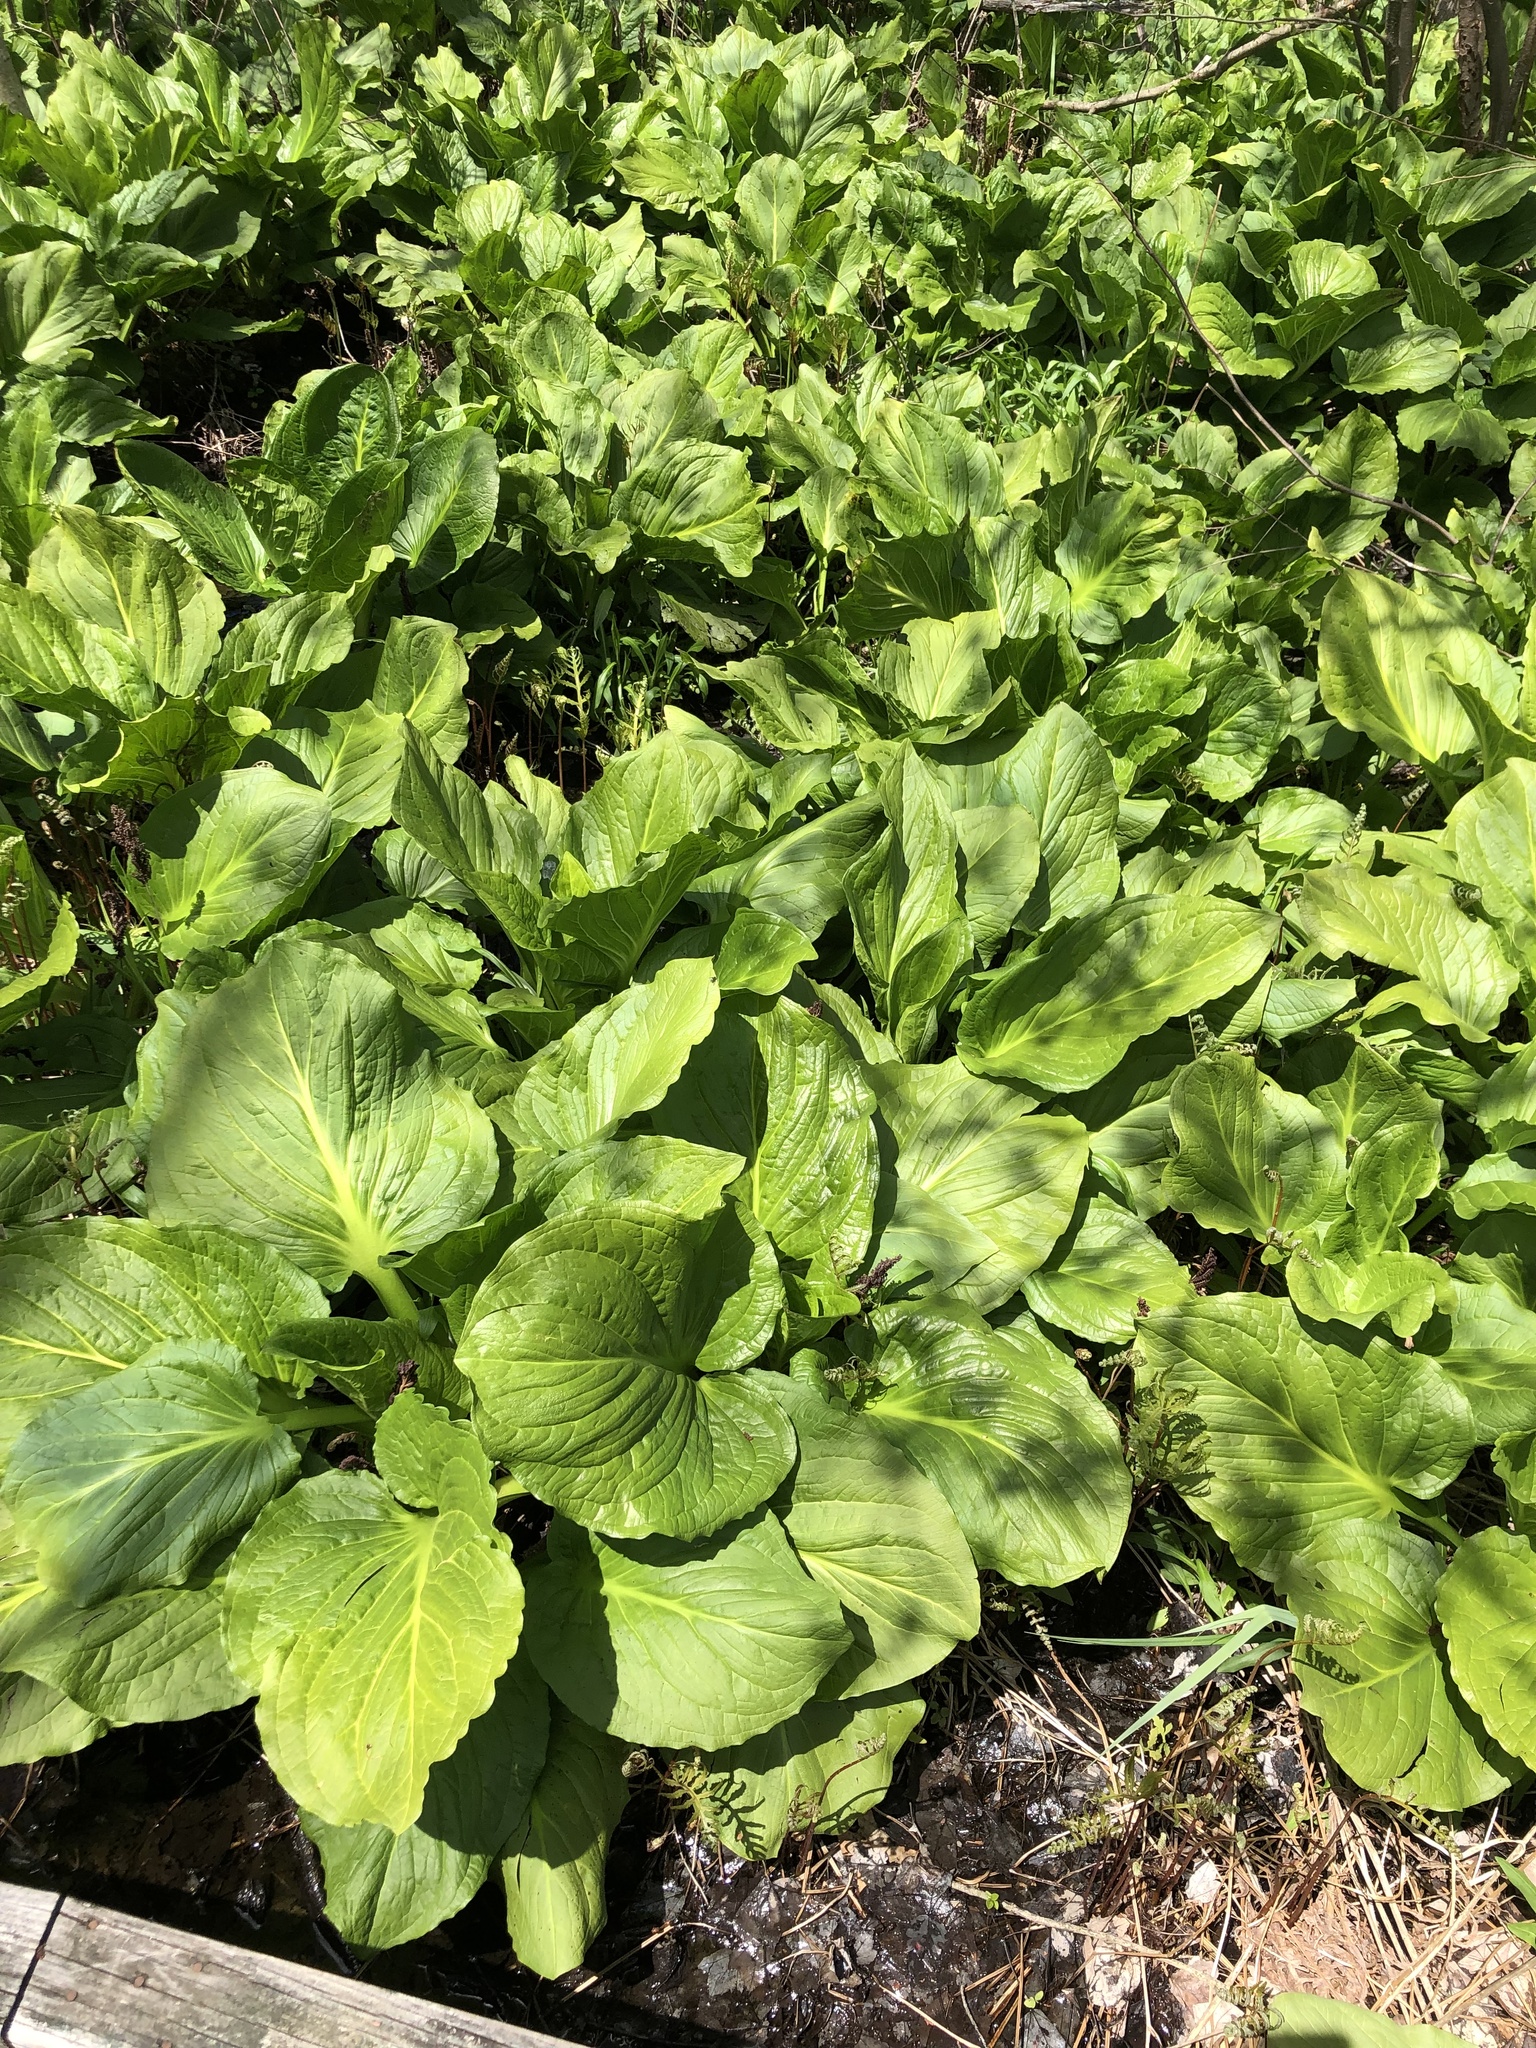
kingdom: Plantae
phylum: Tracheophyta
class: Liliopsida
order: Alismatales
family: Araceae
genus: Symplocarpus
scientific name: Symplocarpus foetidus
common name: Eastern skunk cabbage
